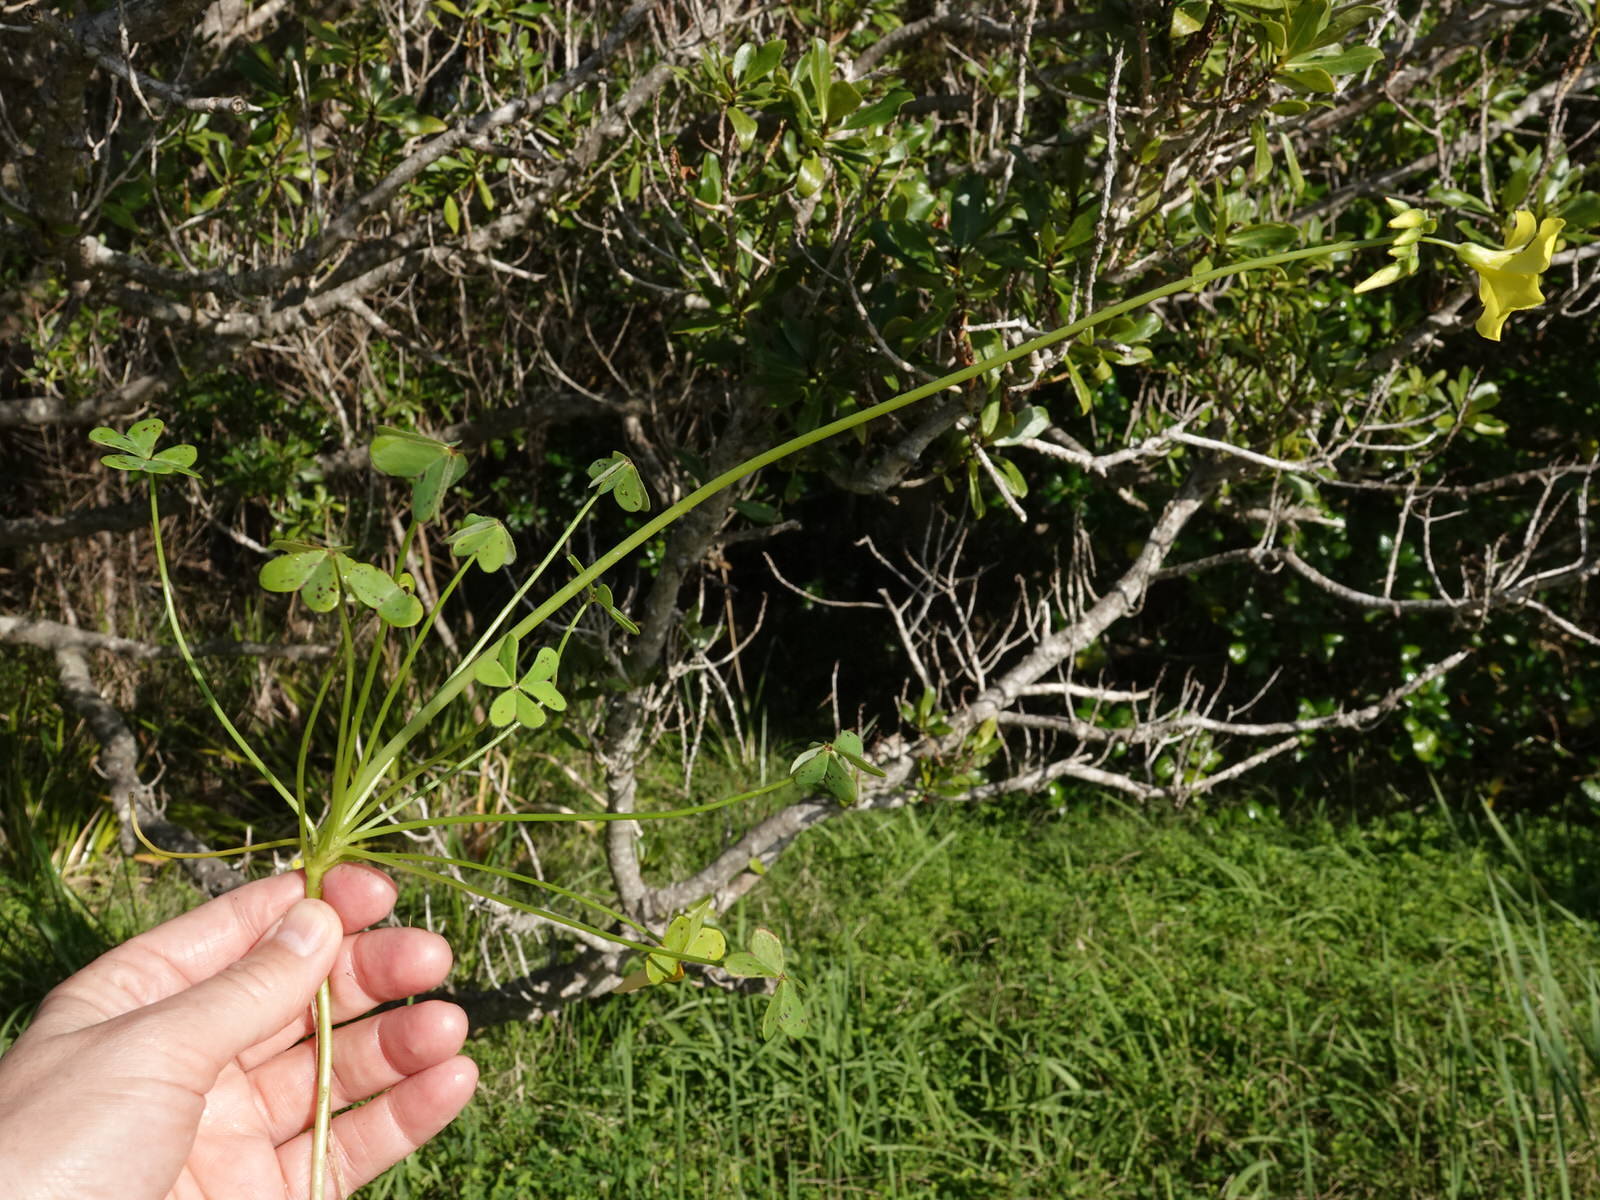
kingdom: Plantae
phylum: Tracheophyta
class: Magnoliopsida
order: Oxalidales
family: Oxalidaceae
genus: Oxalis
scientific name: Oxalis pes-caprae
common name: Bermuda-buttercup
